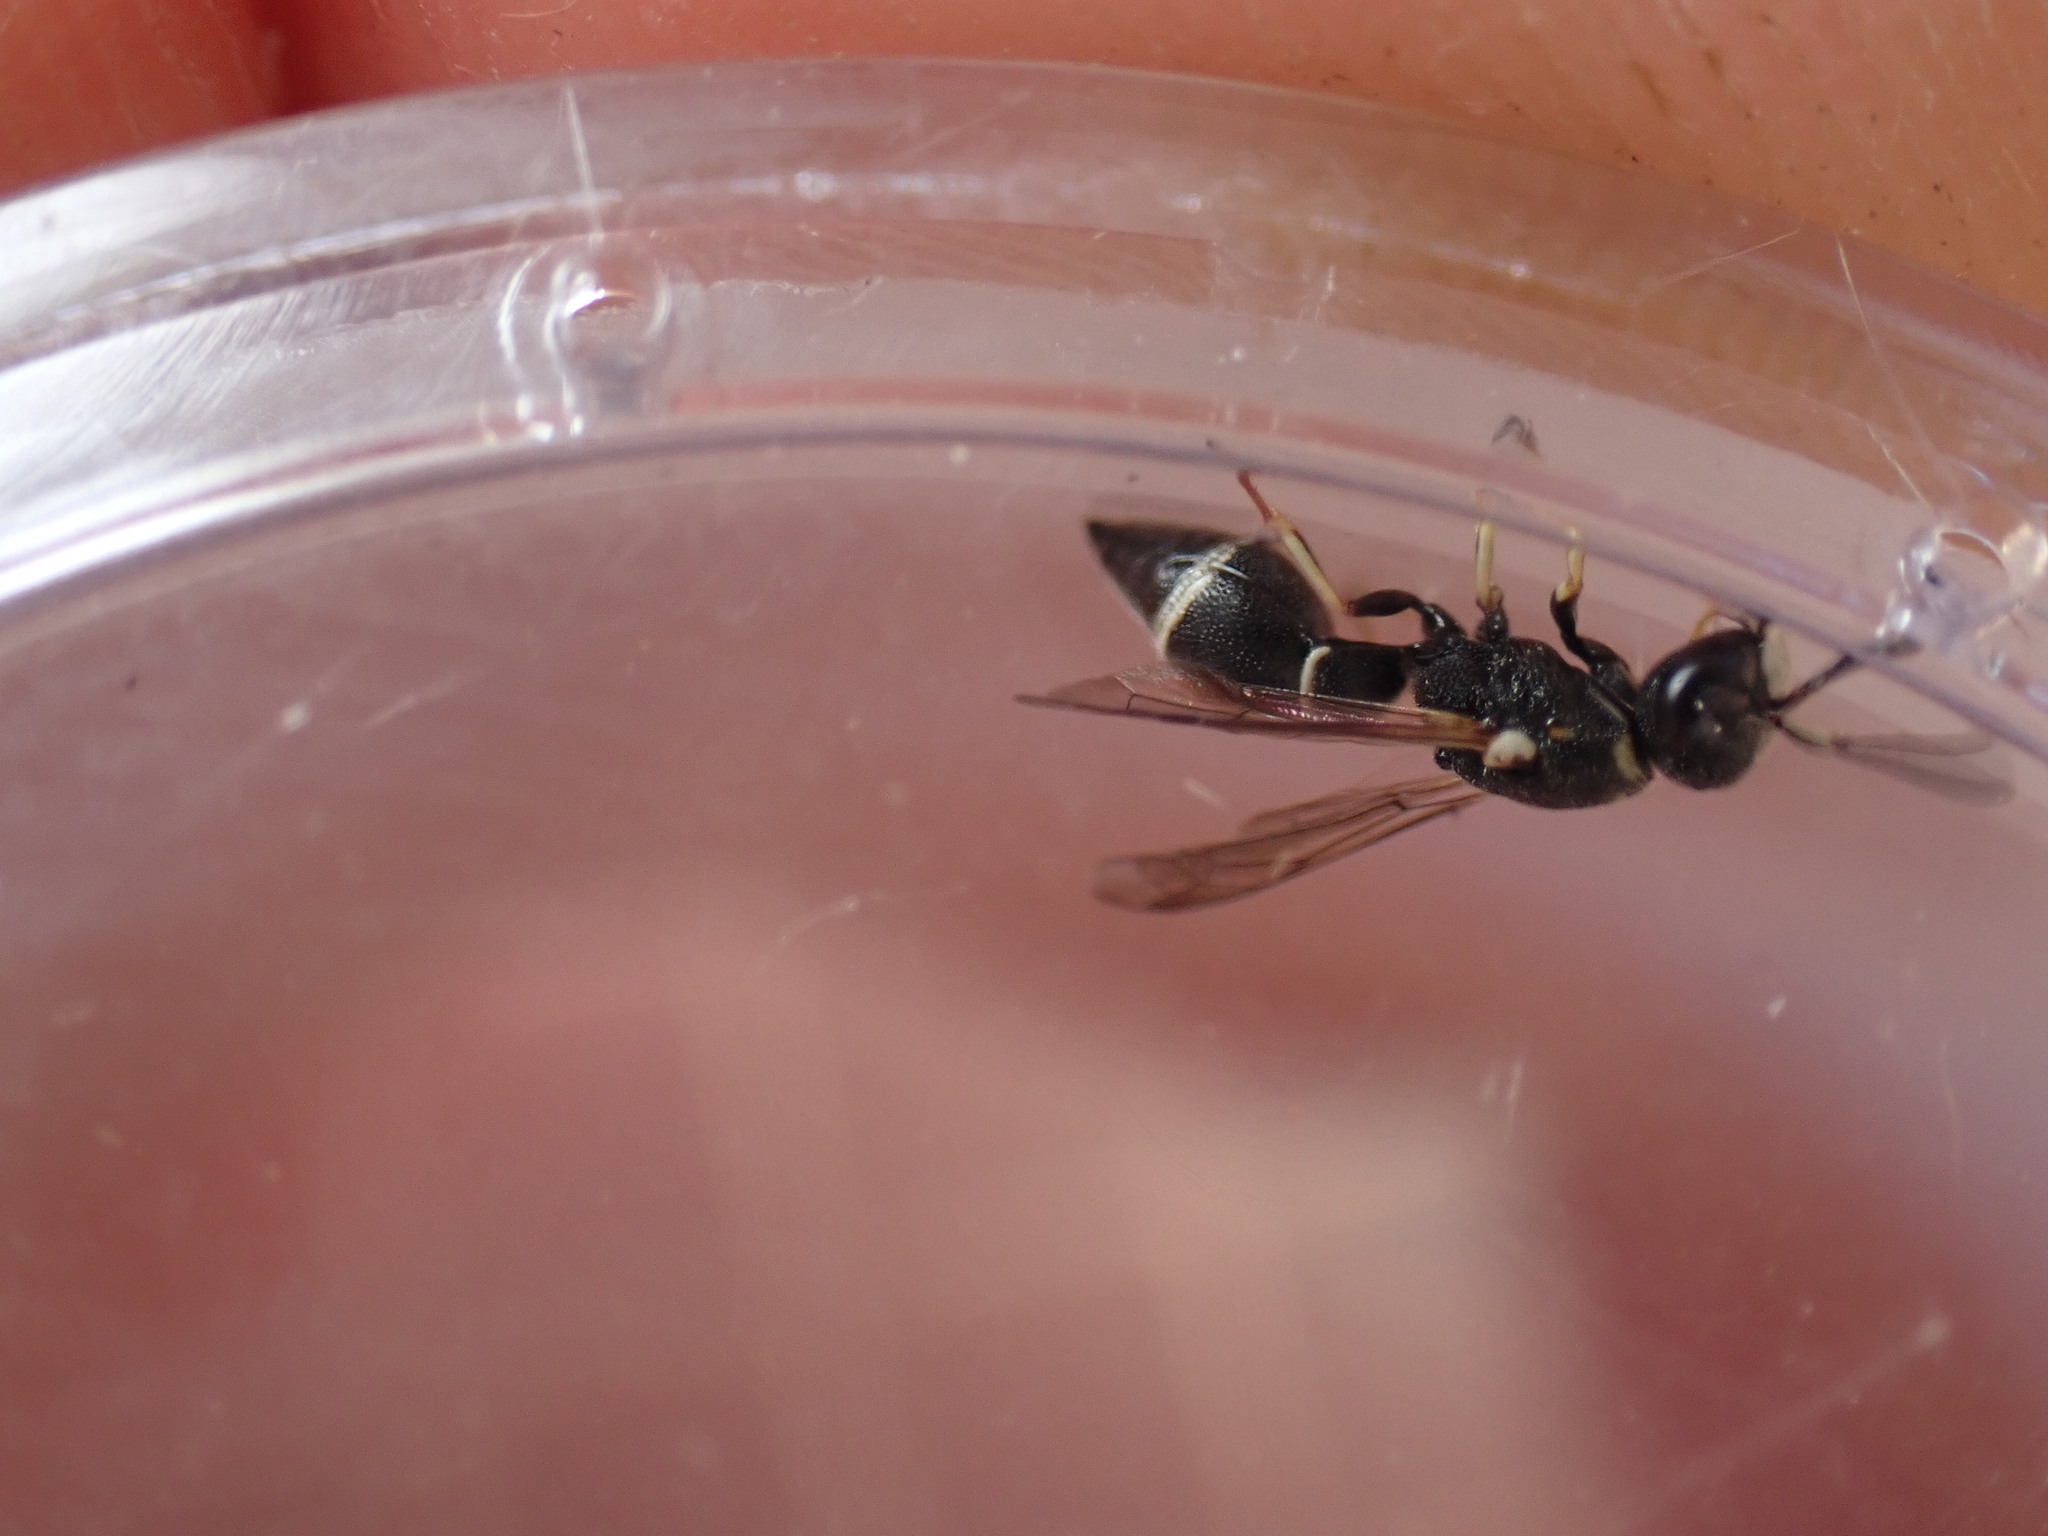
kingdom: Animalia
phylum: Arthropoda
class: Insecta
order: Hymenoptera
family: Eumenidae
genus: Leptochilus
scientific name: Leptochilus regulus
